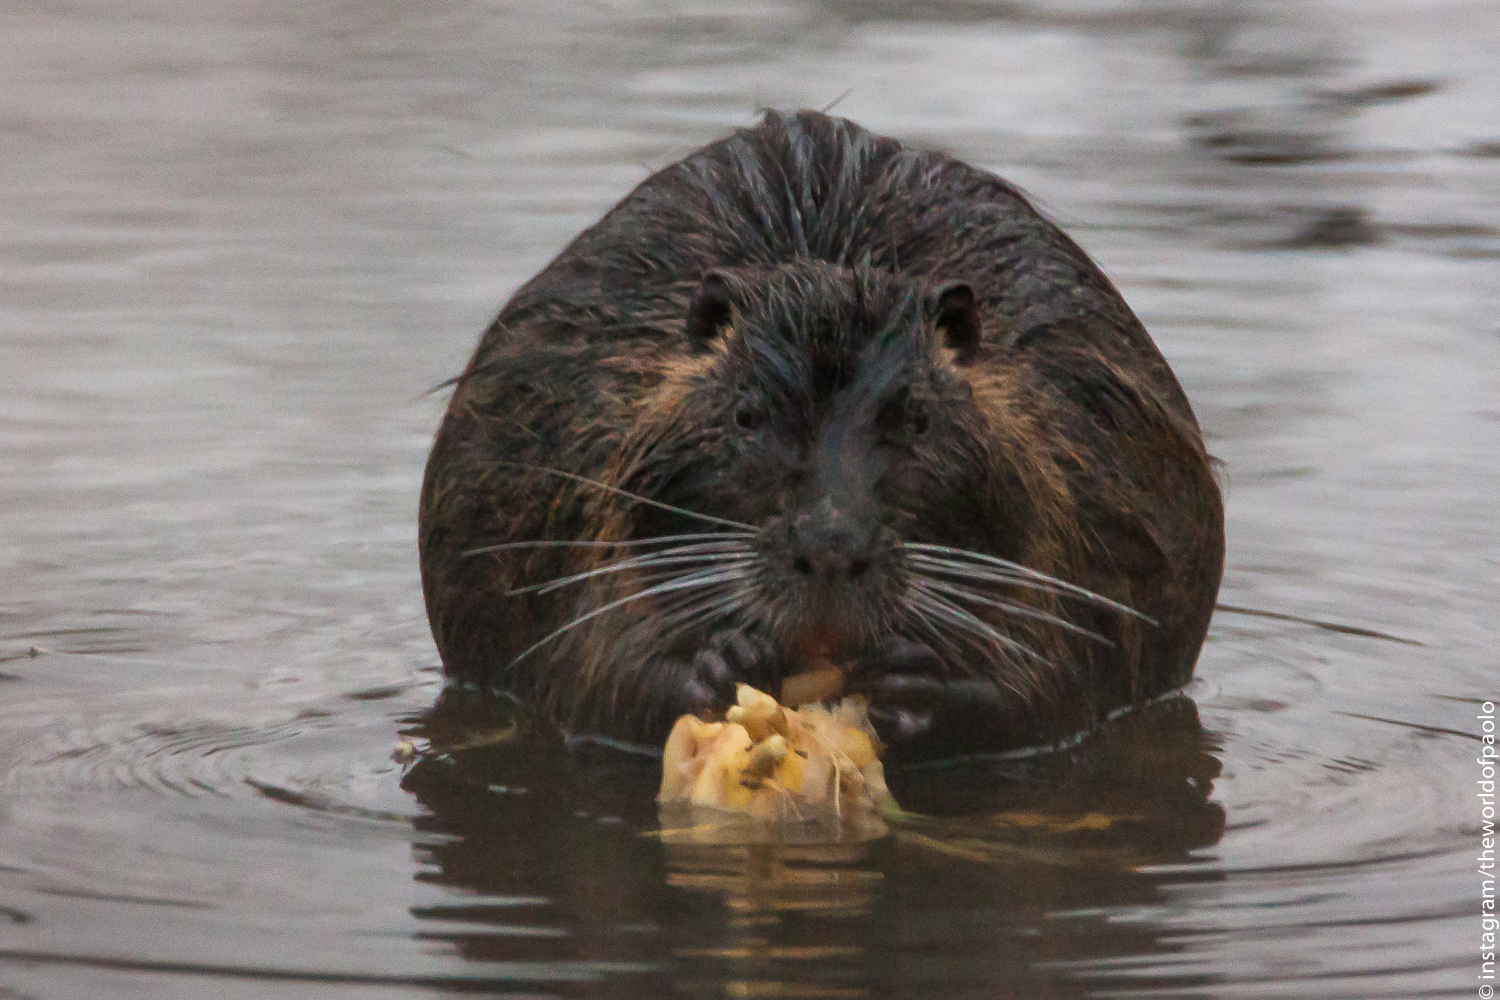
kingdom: Animalia
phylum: Chordata
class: Mammalia
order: Rodentia
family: Myocastoridae
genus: Myocastor
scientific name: Myocastor coypus
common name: Coypu
